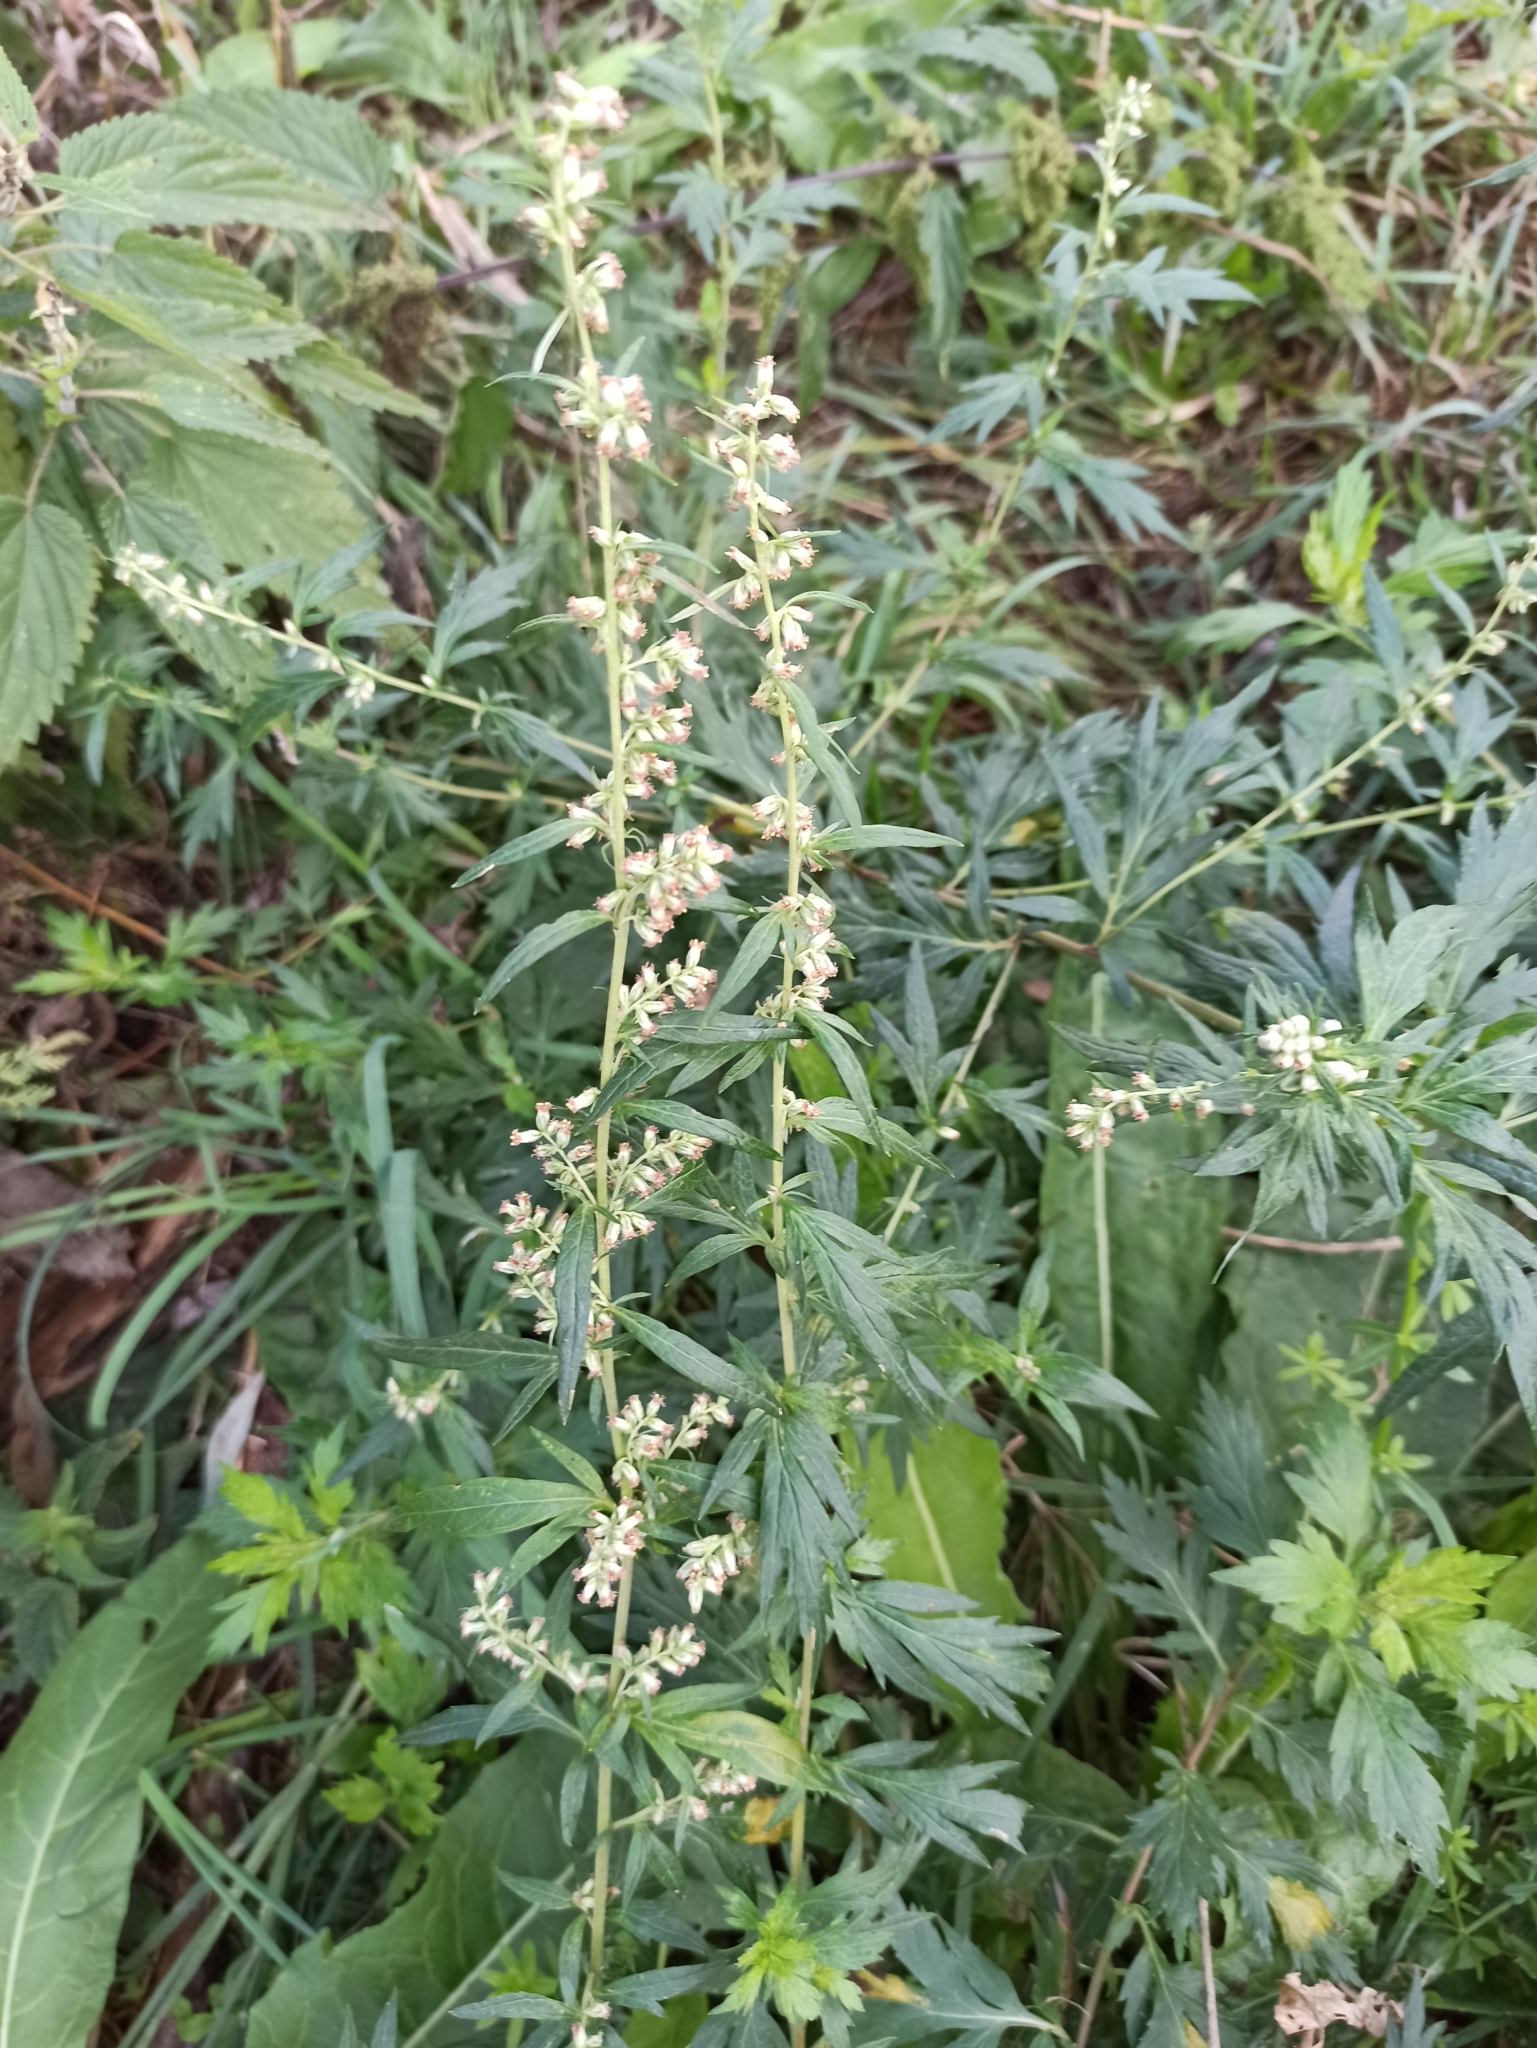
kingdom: Plantae
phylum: Tracheophyta
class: Magnoliopsida
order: Asterales
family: Asteraceae
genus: Artemisia
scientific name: Artemisia vulgaris
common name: Mugwort
